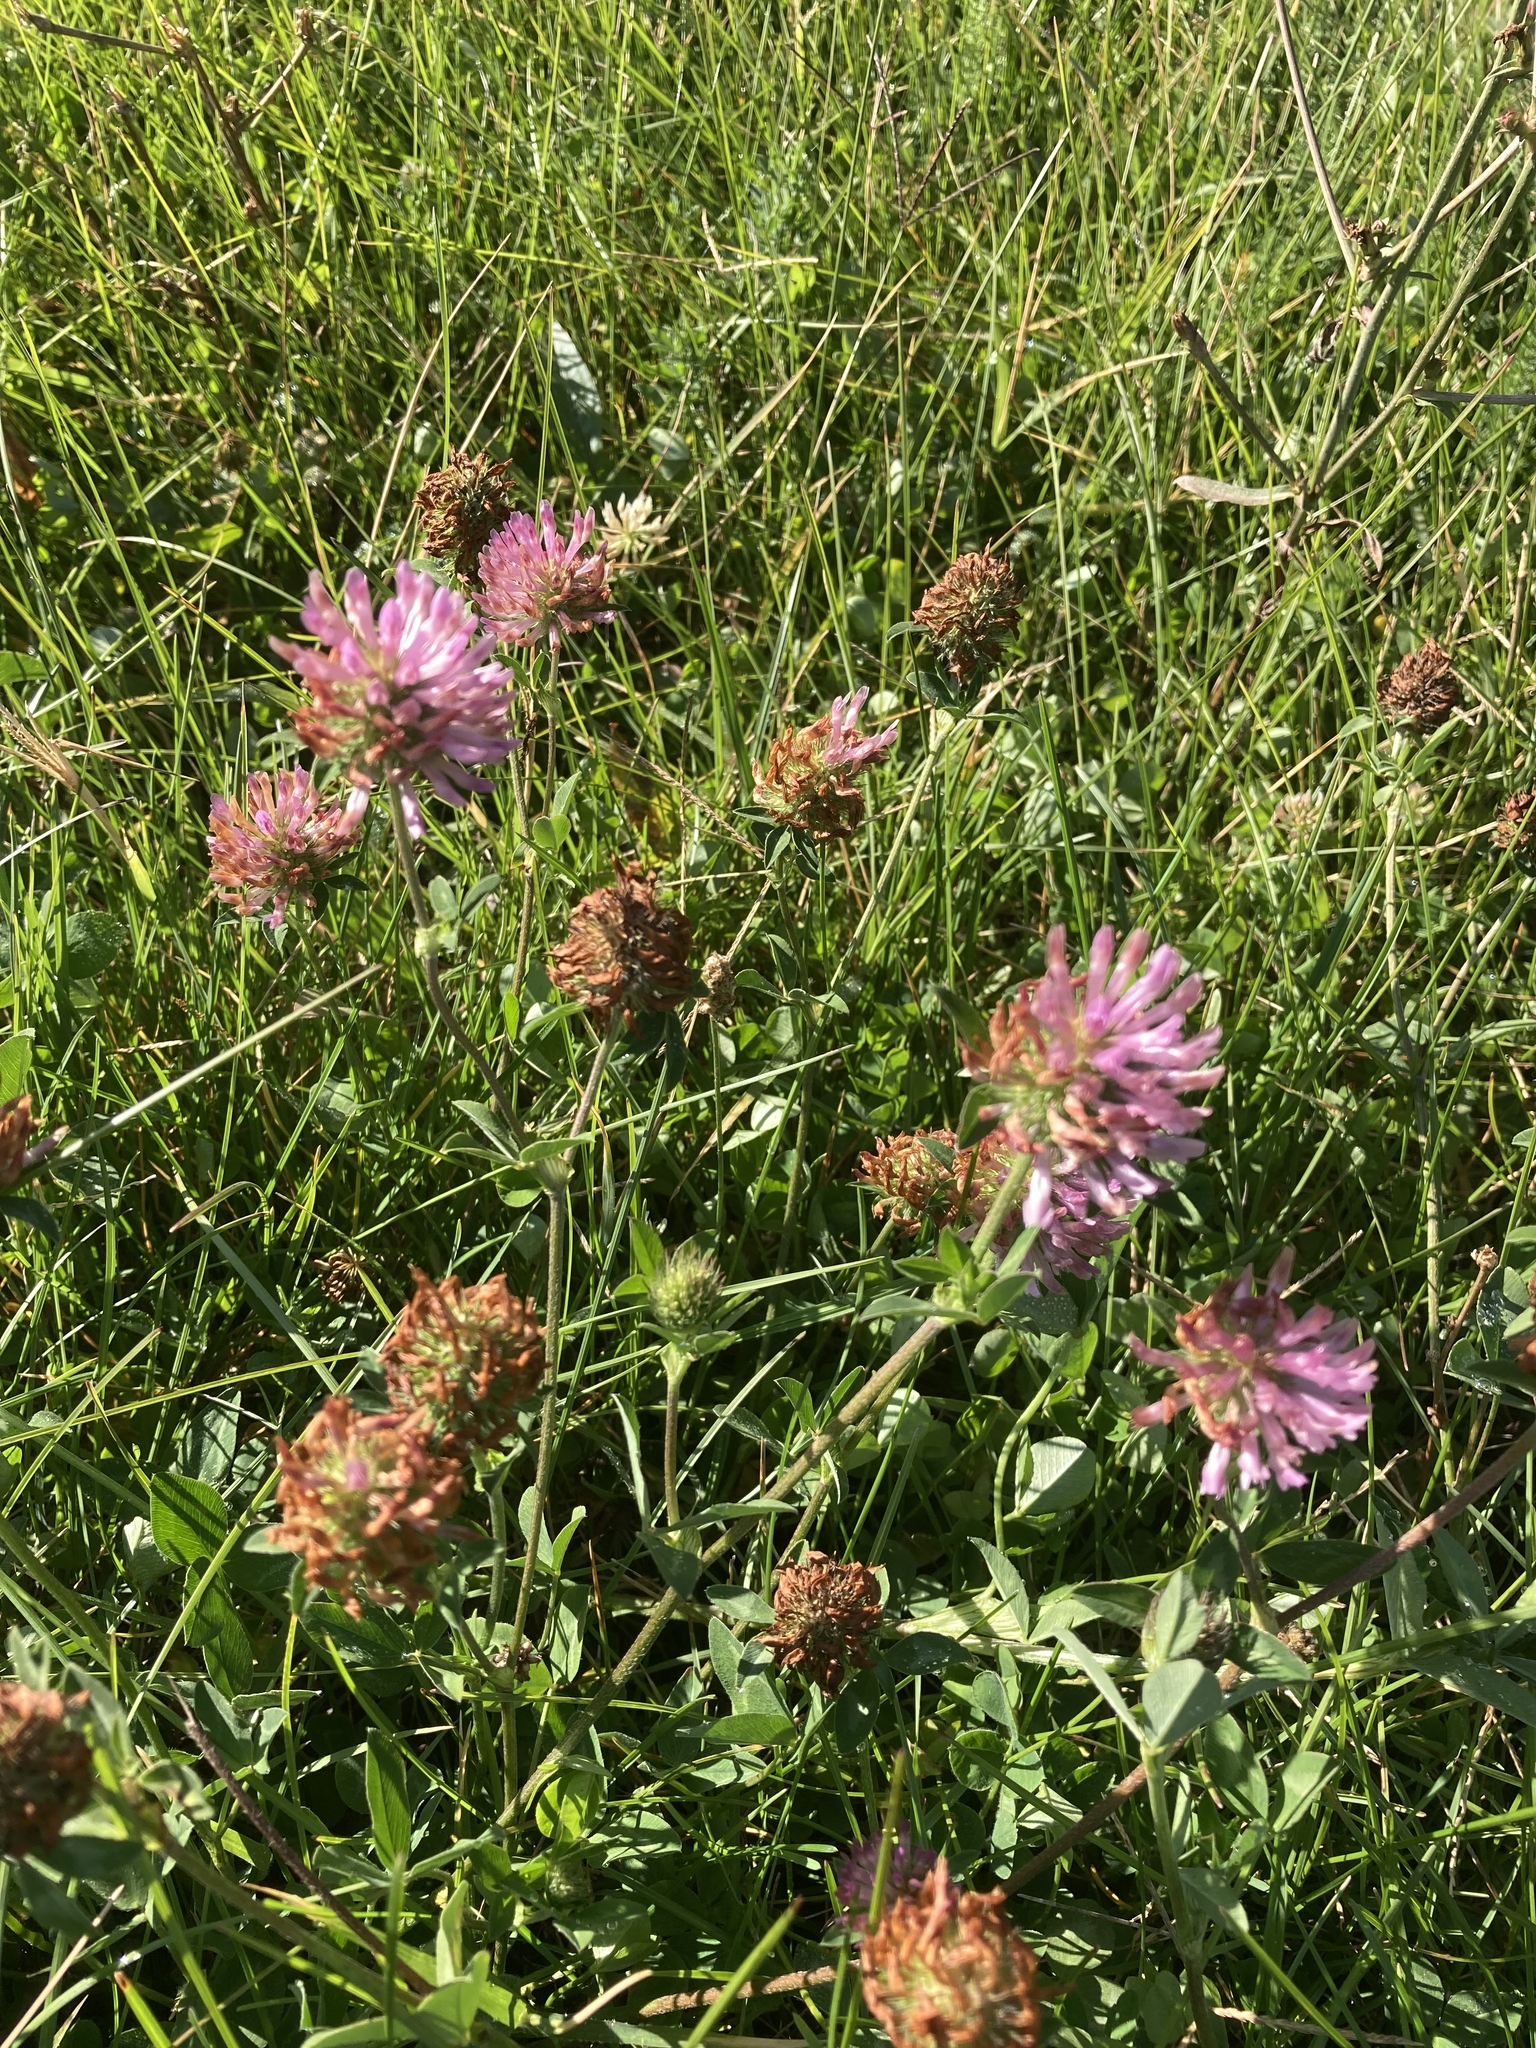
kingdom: Plantae
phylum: Tracheophyta
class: Magnoliopsida
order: Fabales
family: Fabaceae
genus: Trifolium
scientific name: Trifolium pratense
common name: Red clover
